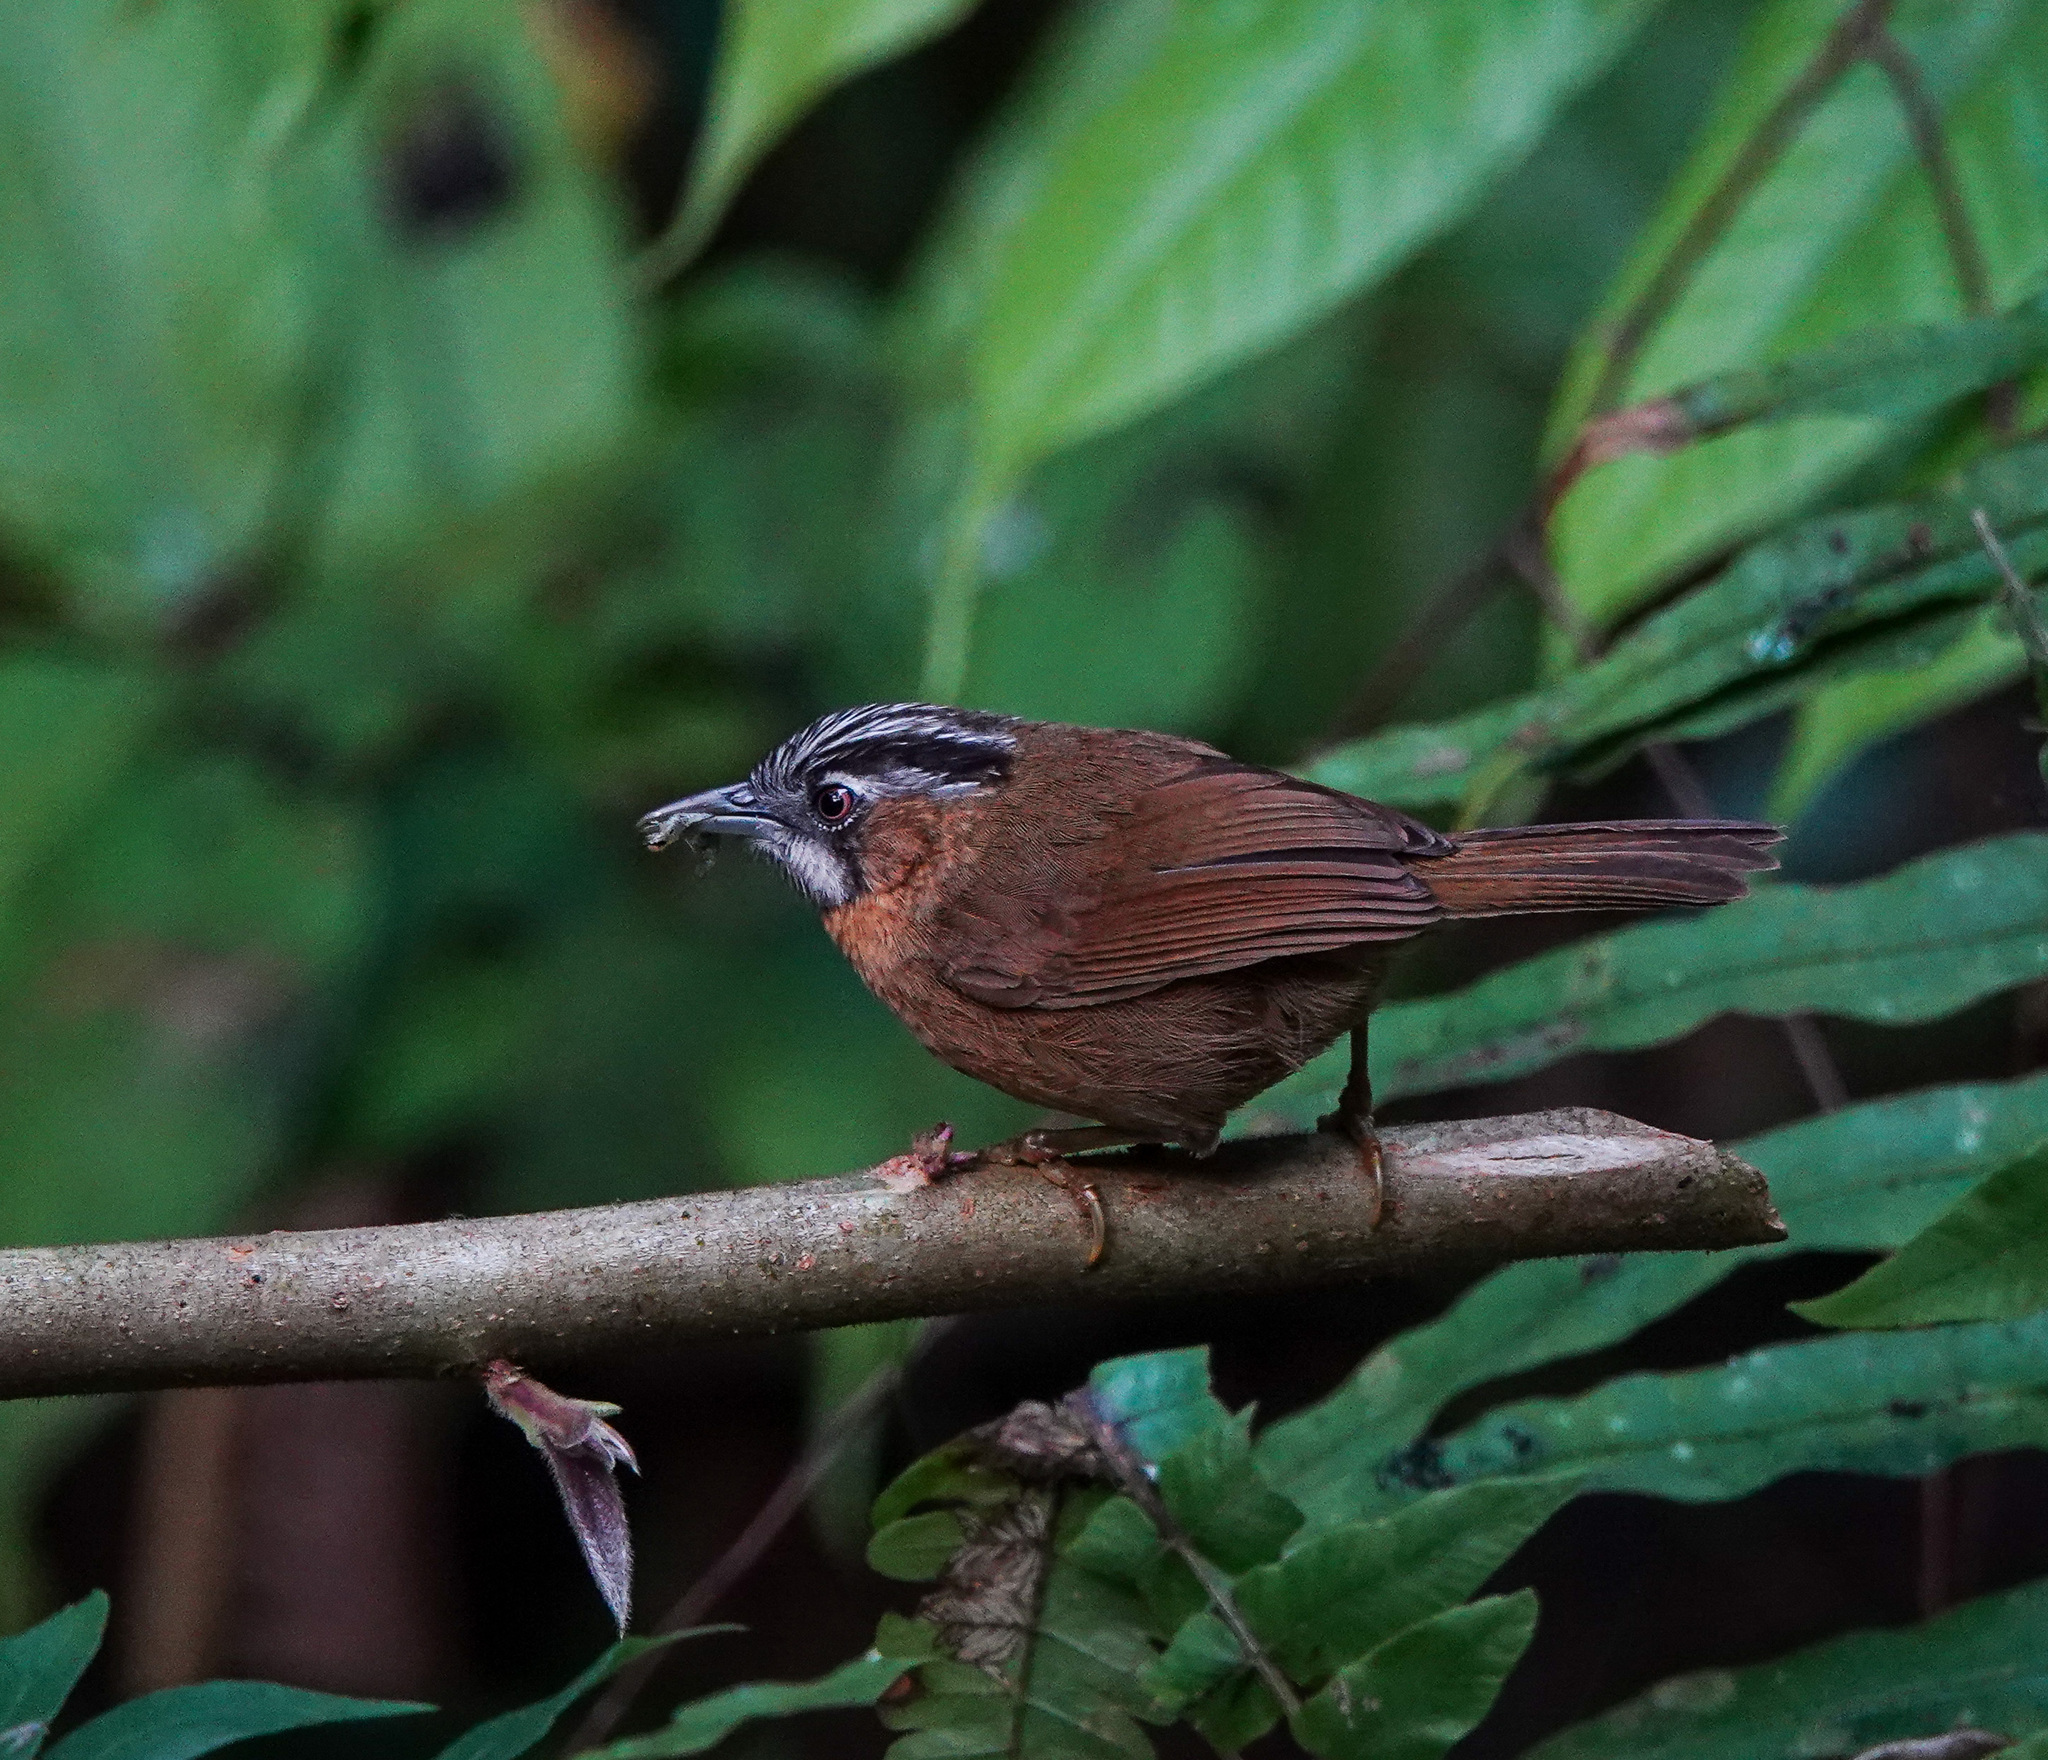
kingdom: Animalia
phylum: Chordata
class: Aves
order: Passeriformes
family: Timaliidae
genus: Stachyris
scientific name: Stachyris nigriceps
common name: Grey-throated babbler
